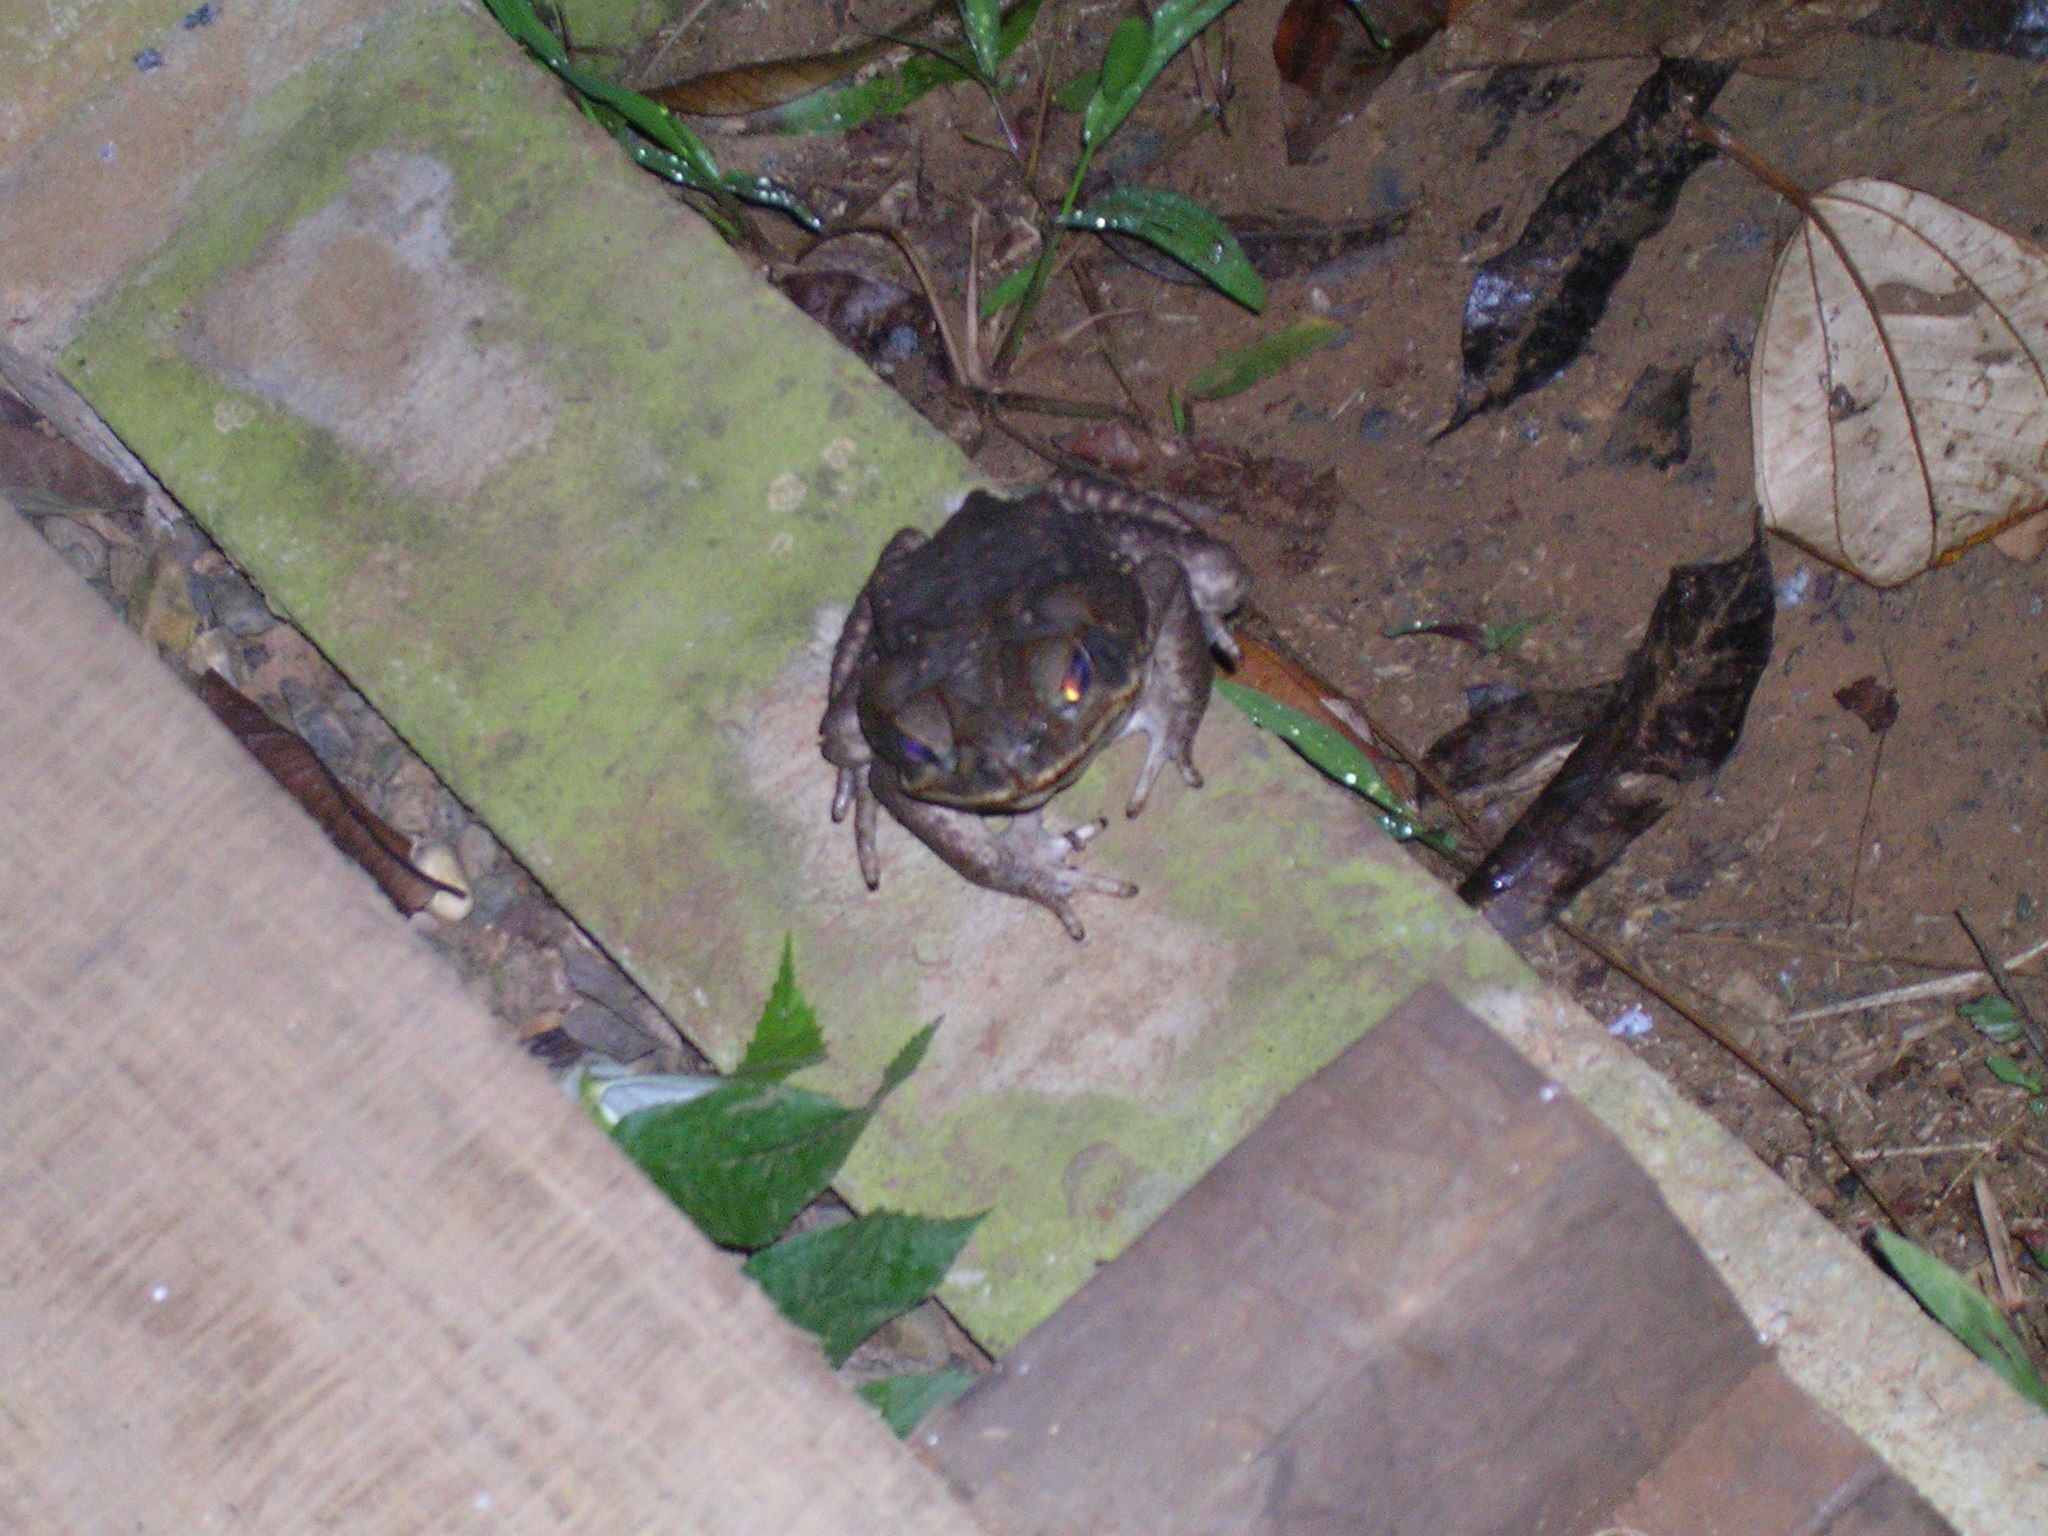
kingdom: Animalia
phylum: Chordata
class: Amphibia
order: Anura
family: Bufonidae
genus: Rhinella
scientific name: Rhinella horribilis
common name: Mesoamerican cane toad
